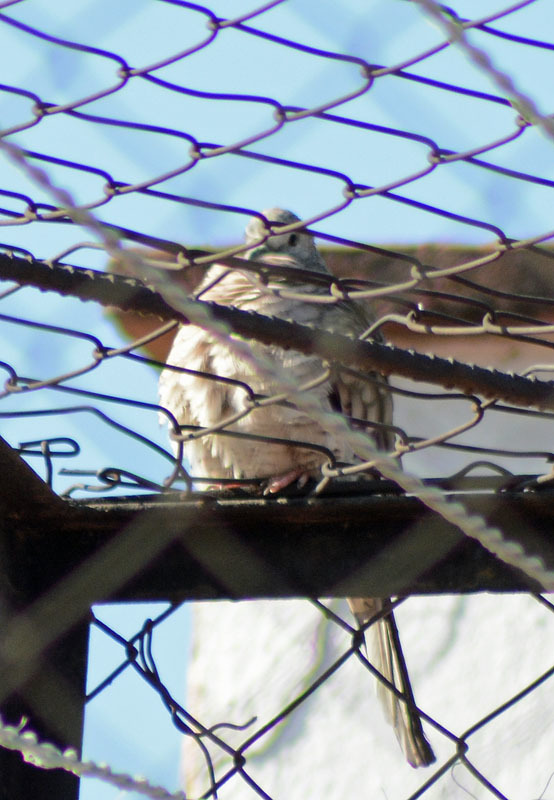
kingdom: Animalia
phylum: Chordata
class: Aves
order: Columbiformes
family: Columbidae
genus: Columbina
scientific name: Columbina inca
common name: Inca dove
